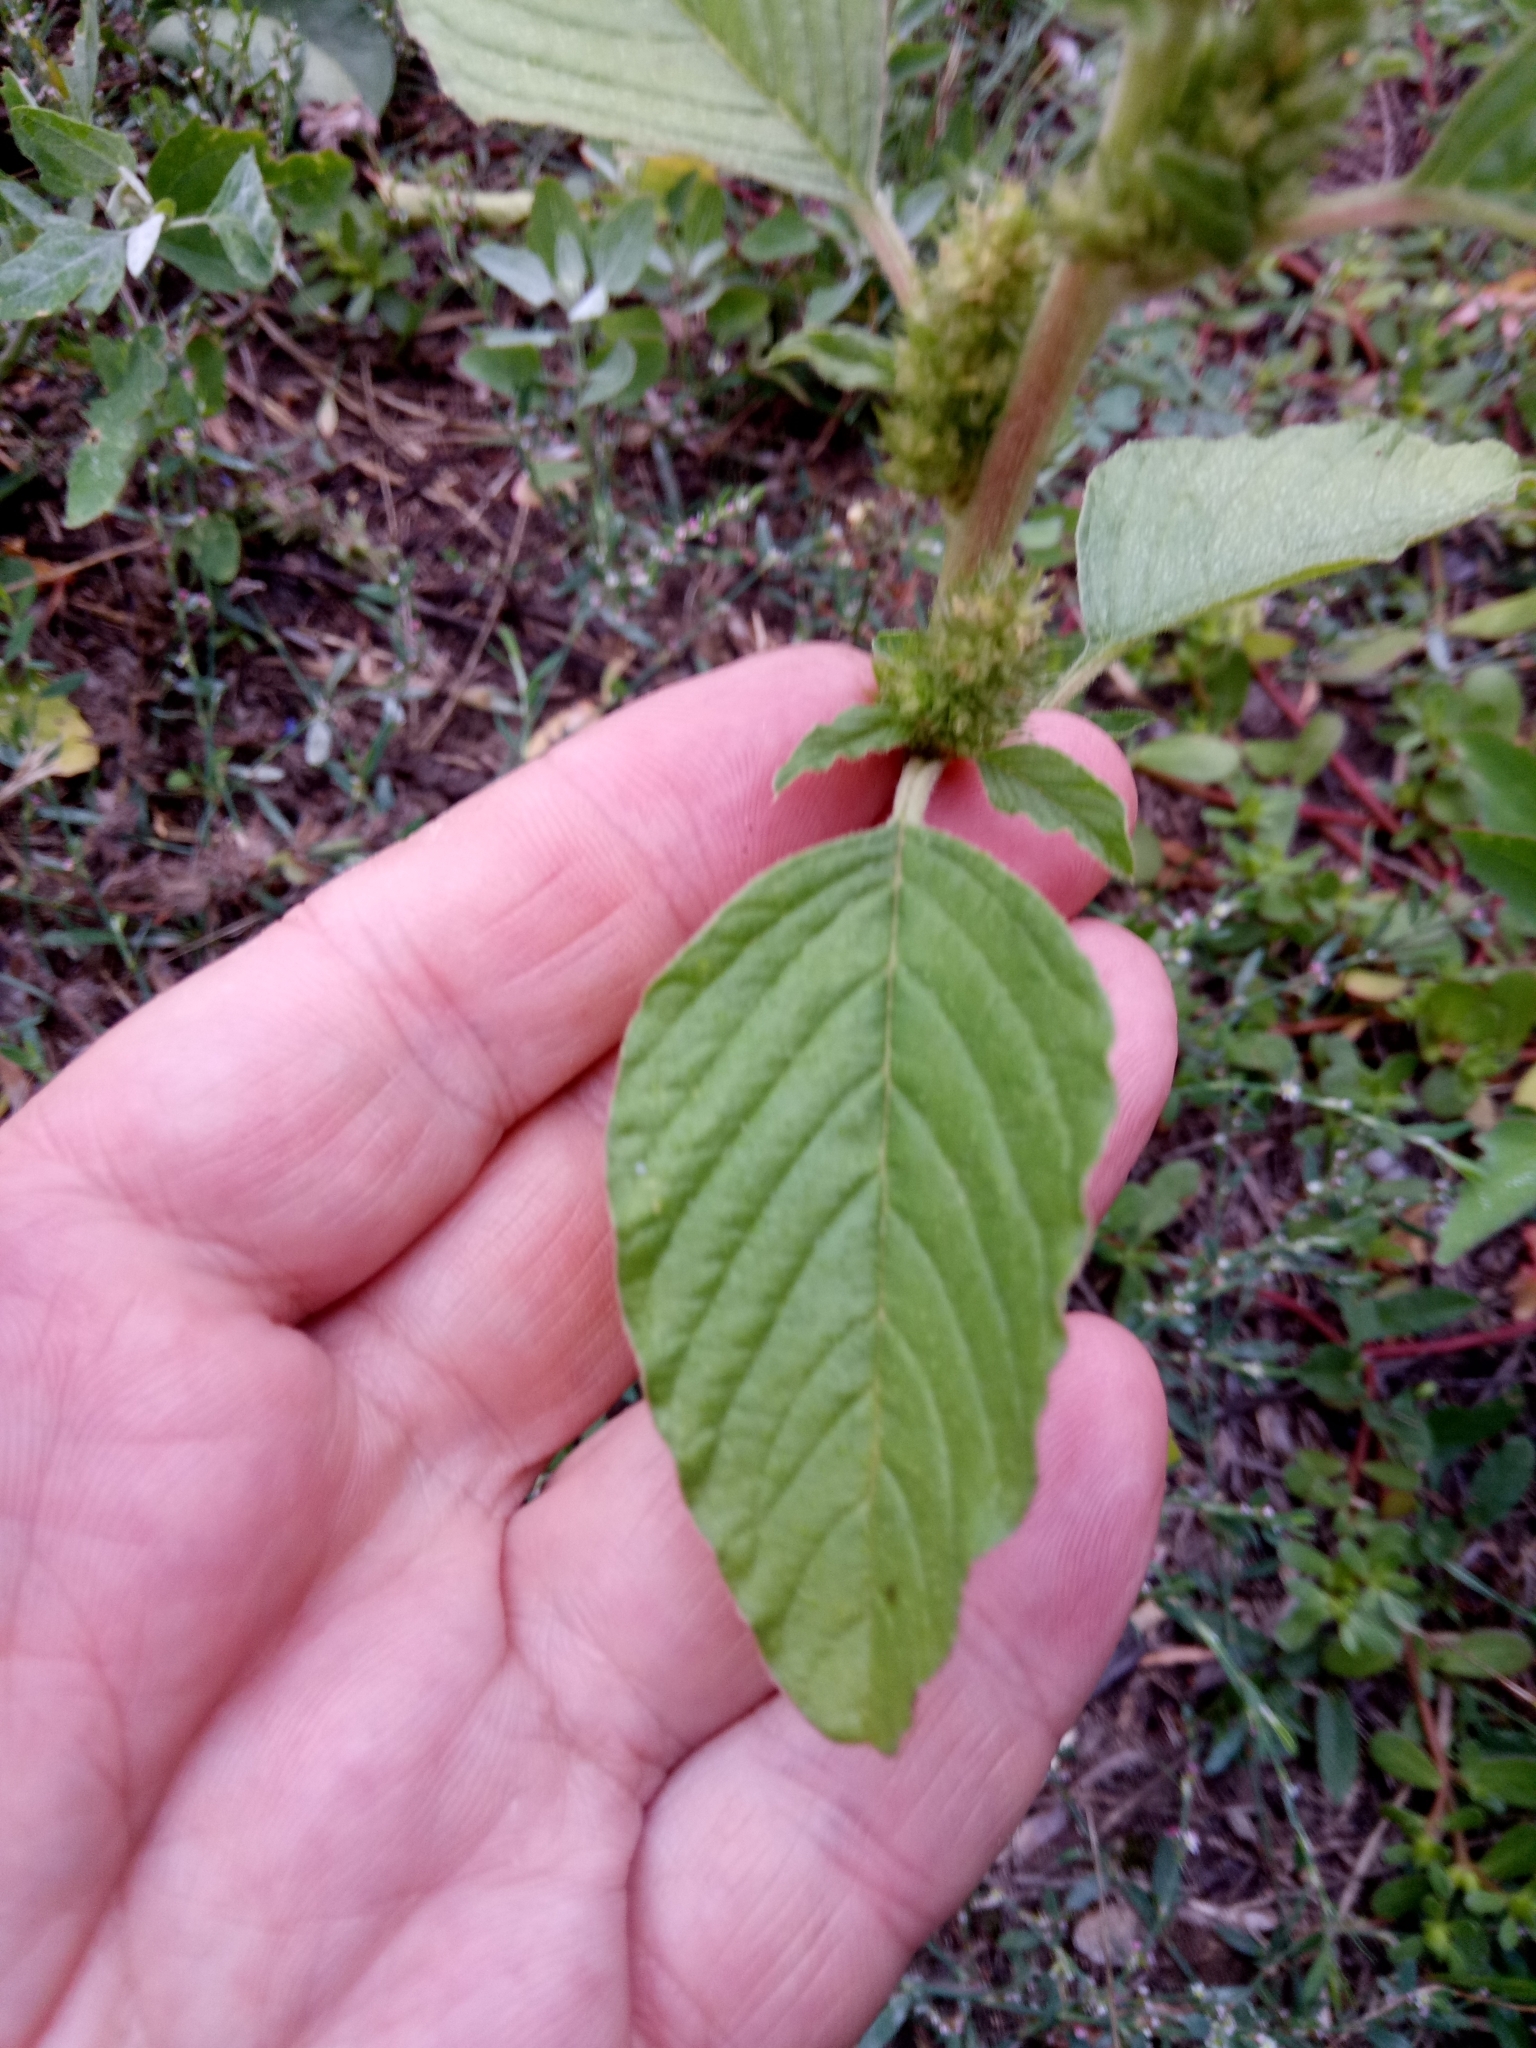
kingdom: Plantae
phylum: Tracheophyta
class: Magnoliopsida
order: Caryophyllales
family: Amaranthaceae
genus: Amaranthus
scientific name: Amaranthus retroflexus
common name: Redroot amaranth
